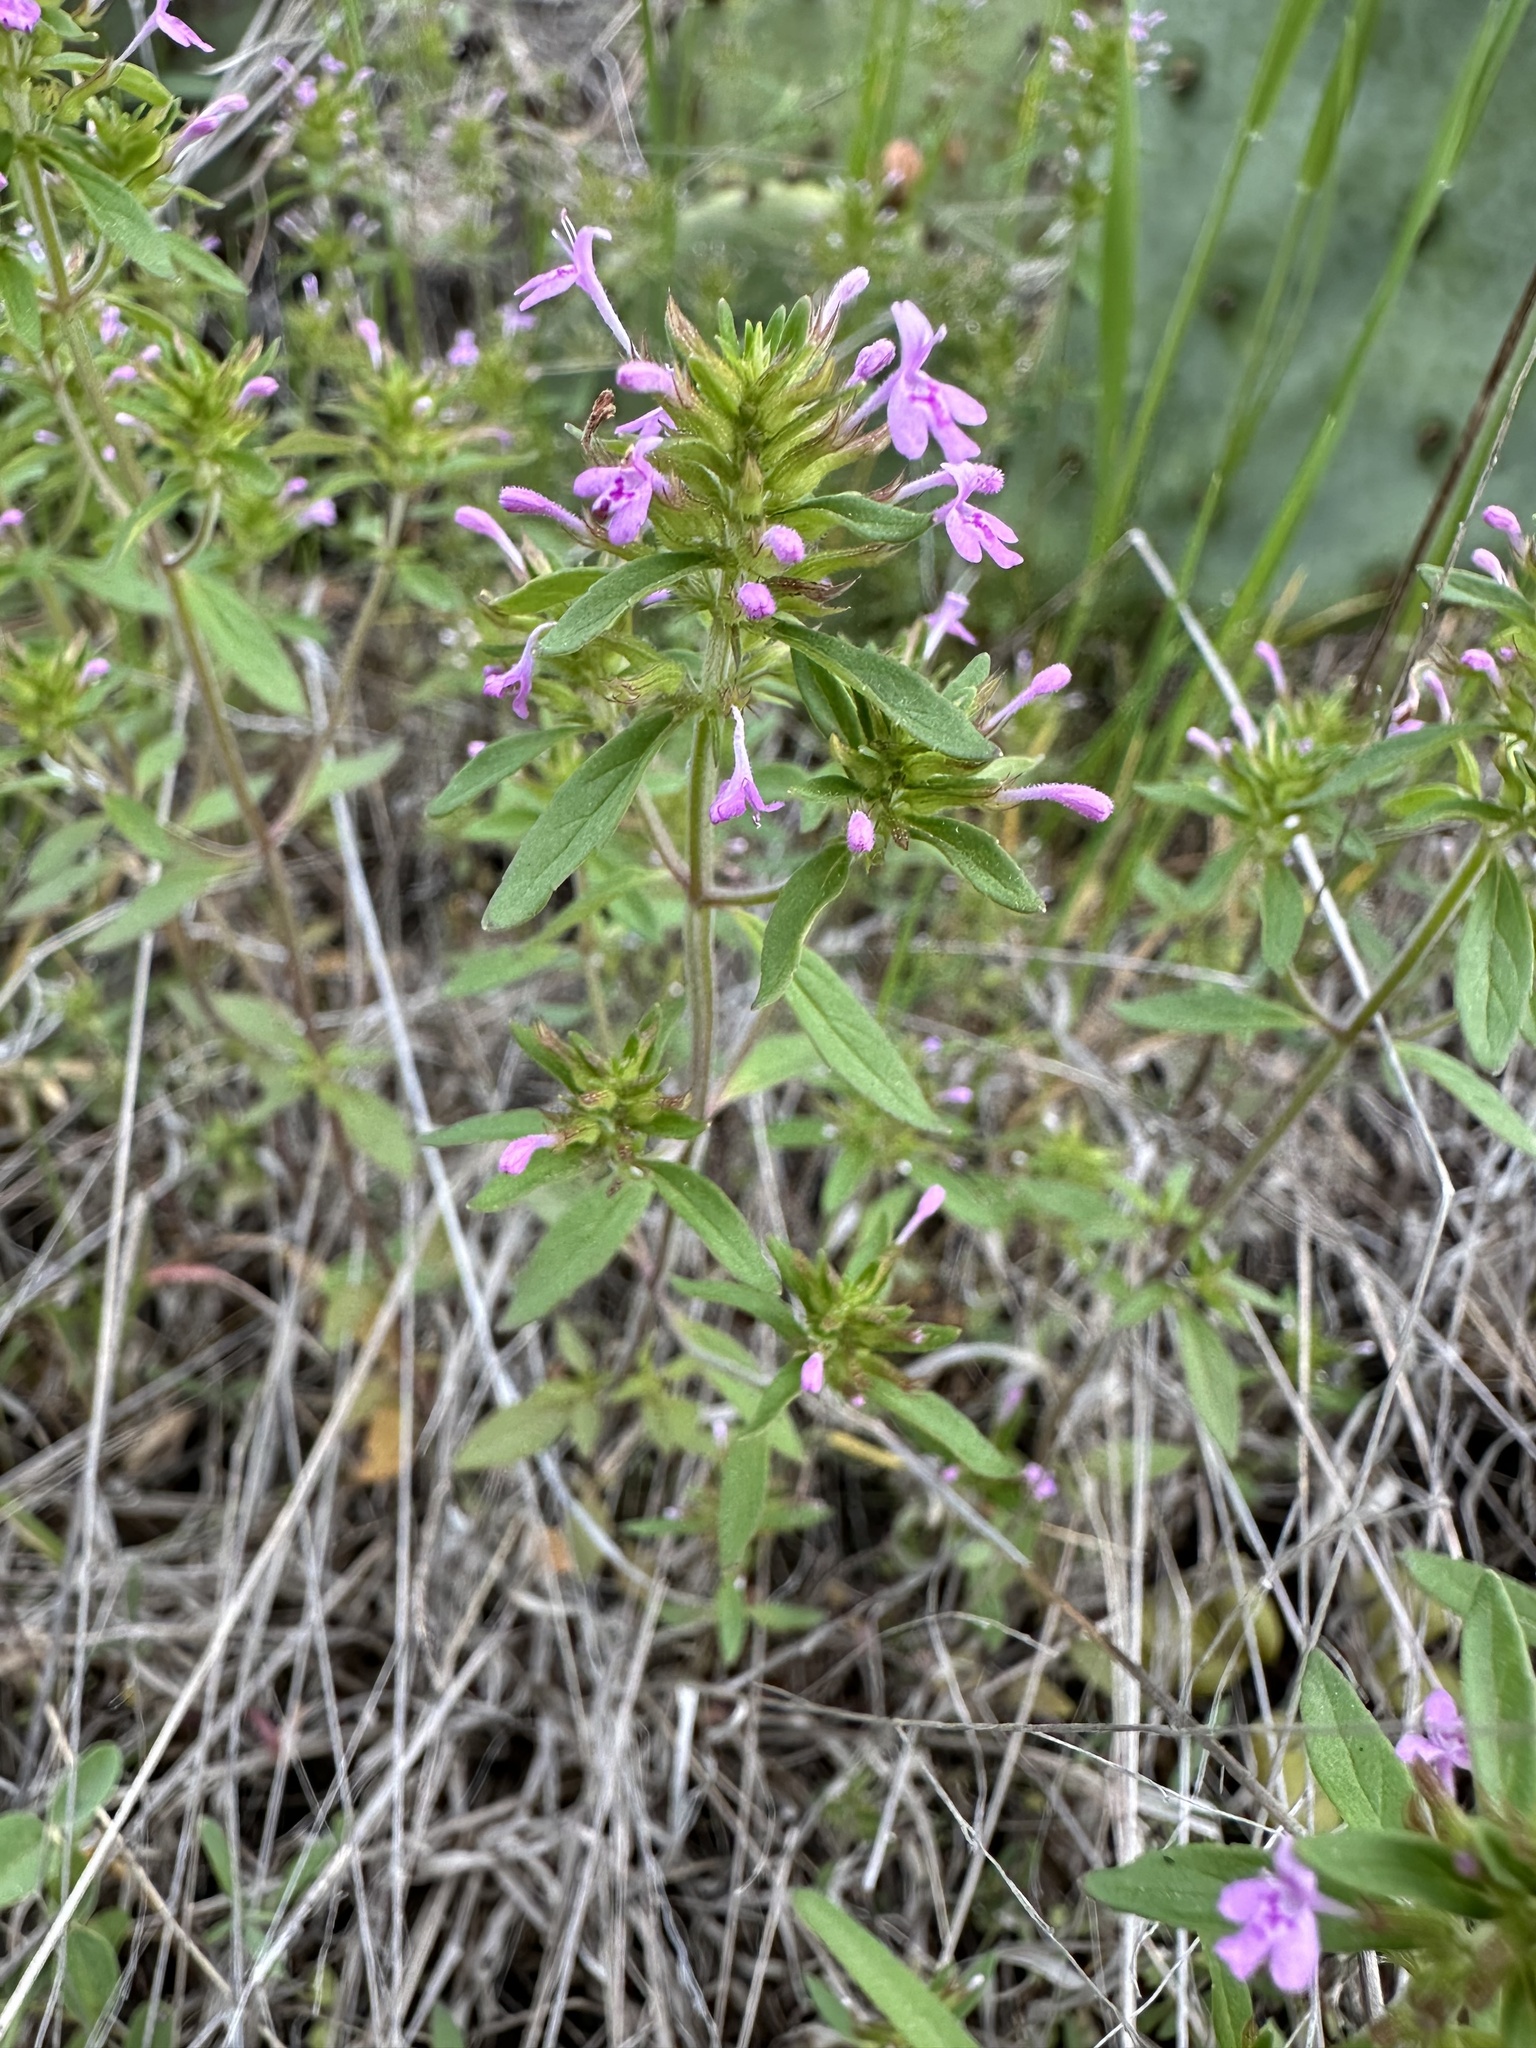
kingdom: Plantae
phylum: Tracheophyta
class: Magnoliopsida
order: Lamiales
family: Lamiaceae
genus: Hedeoma
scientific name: Hedeoma acinoides
